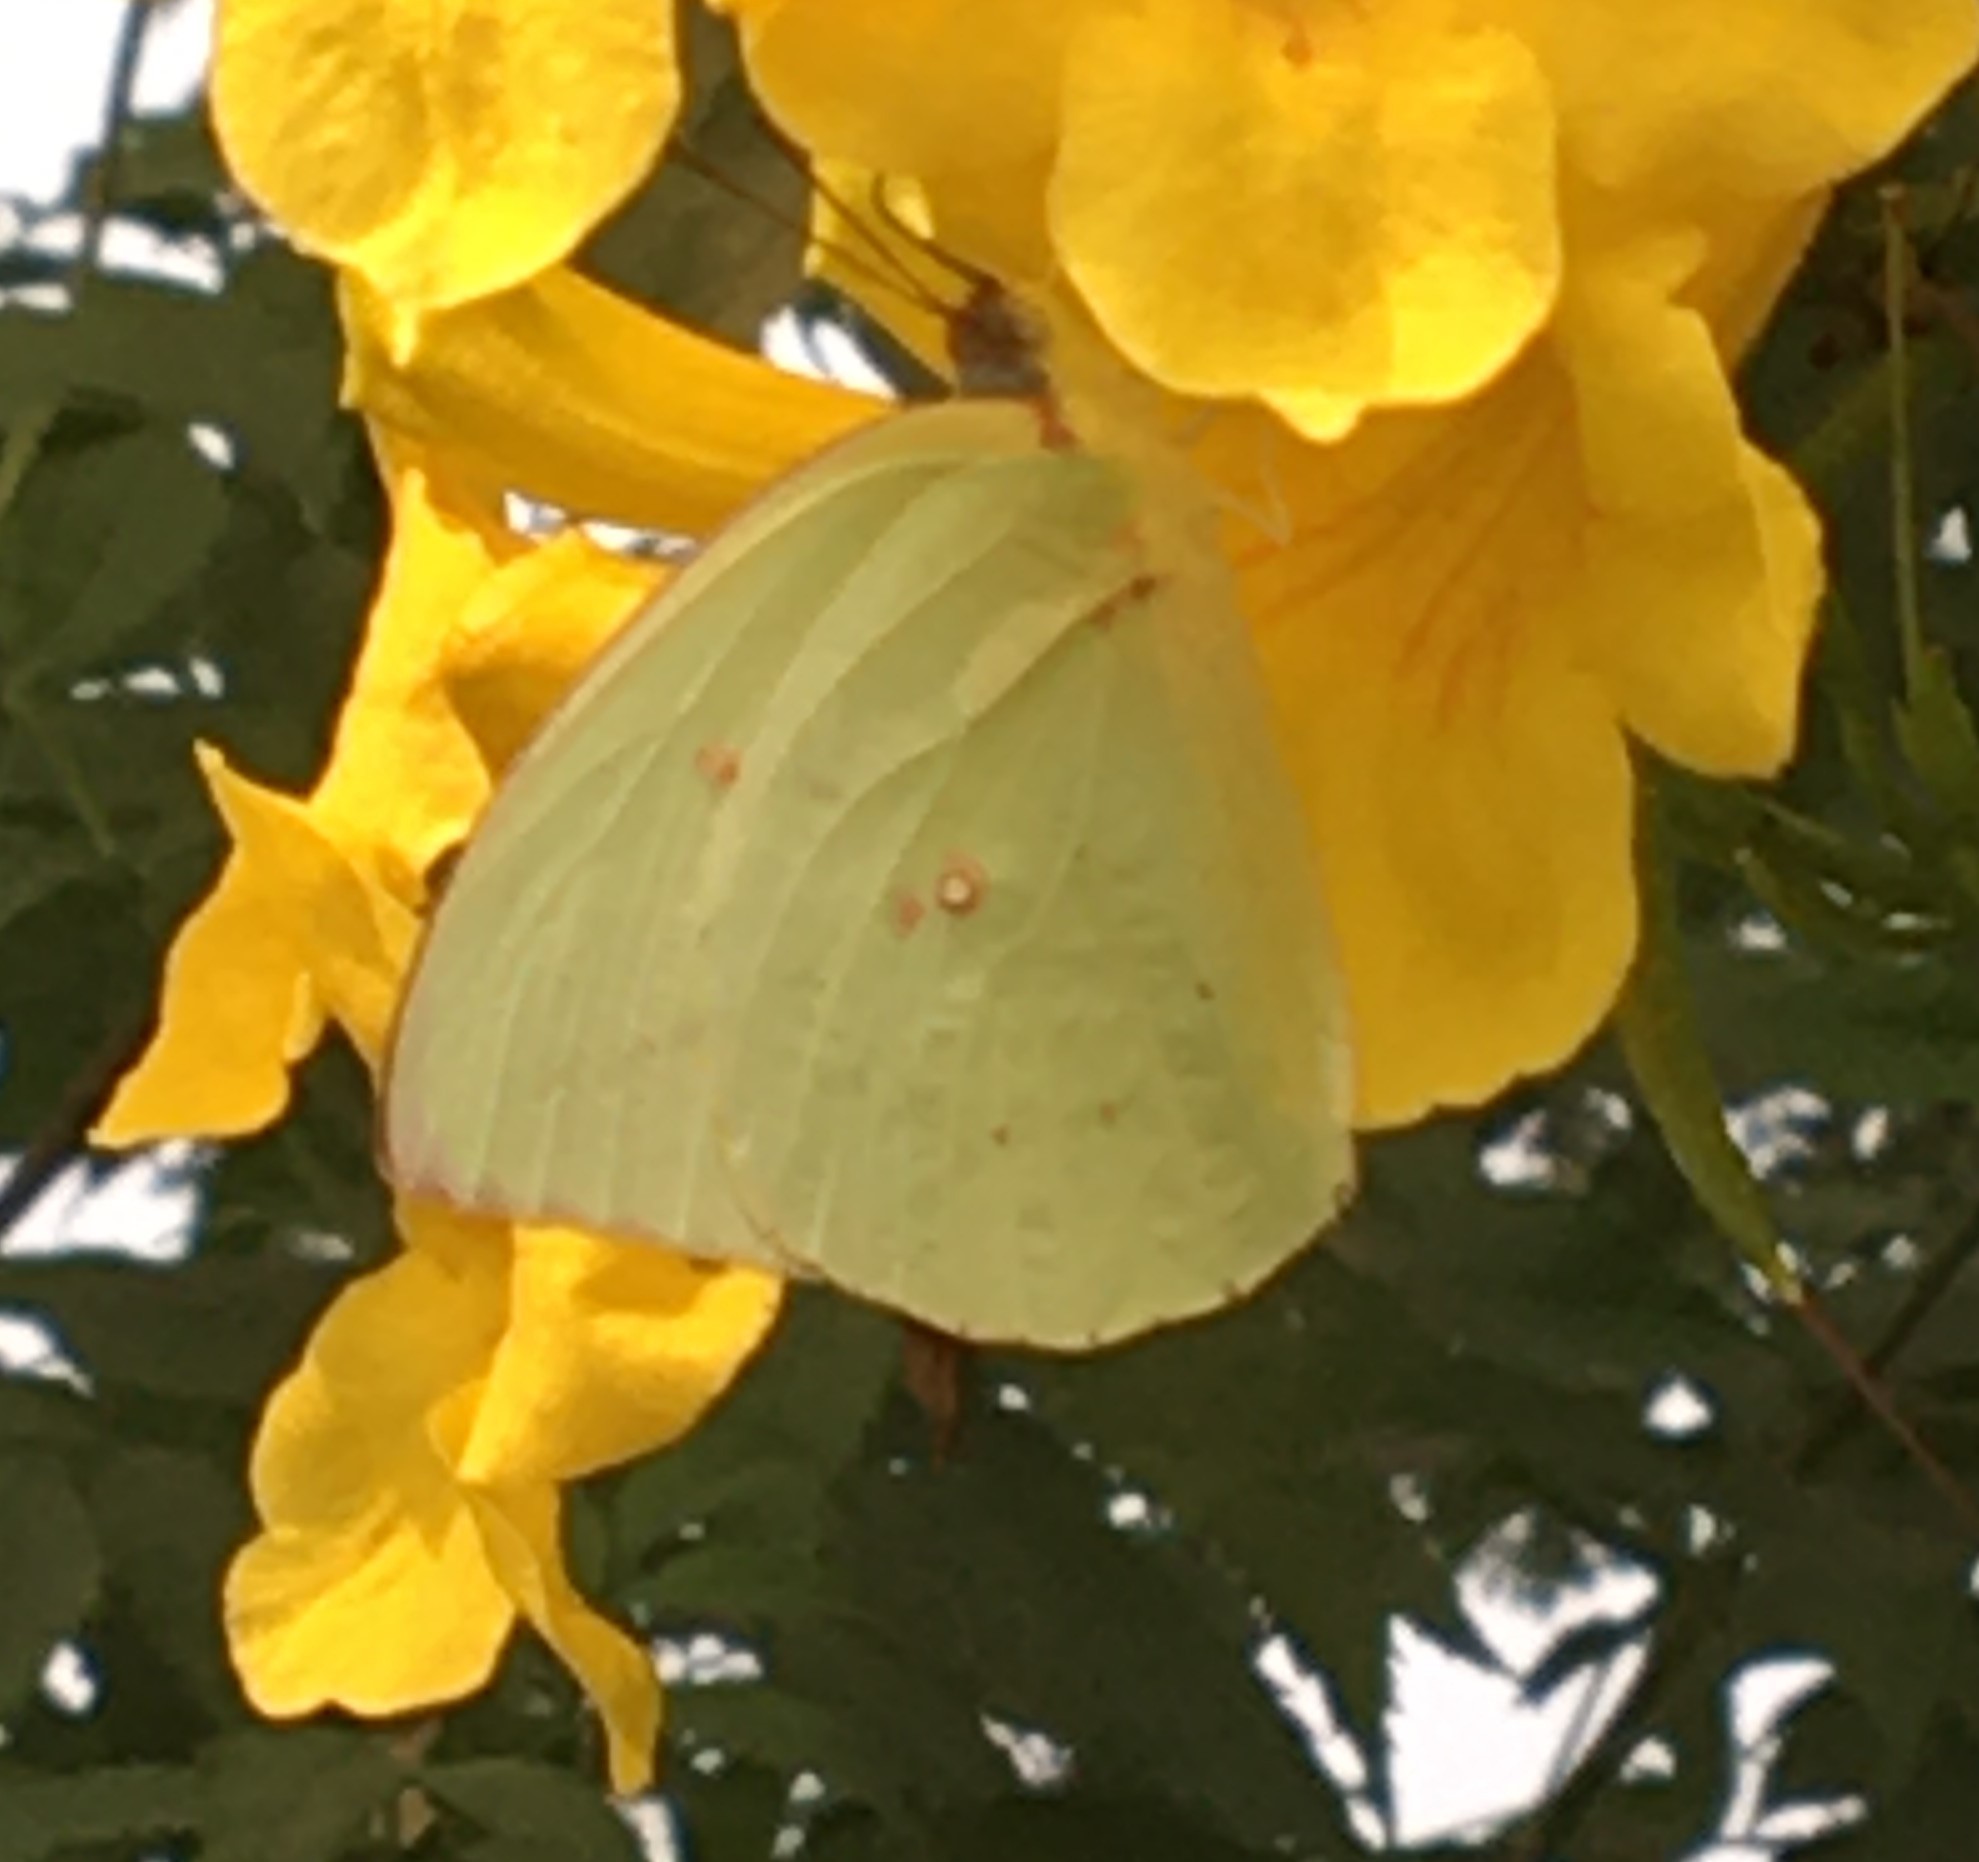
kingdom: Animalia
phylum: Arthropoda
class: Insecta
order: Lepidoptera
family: Pieridae
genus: Catopsilia
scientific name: Catopsilia pomona
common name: Common emigrant
